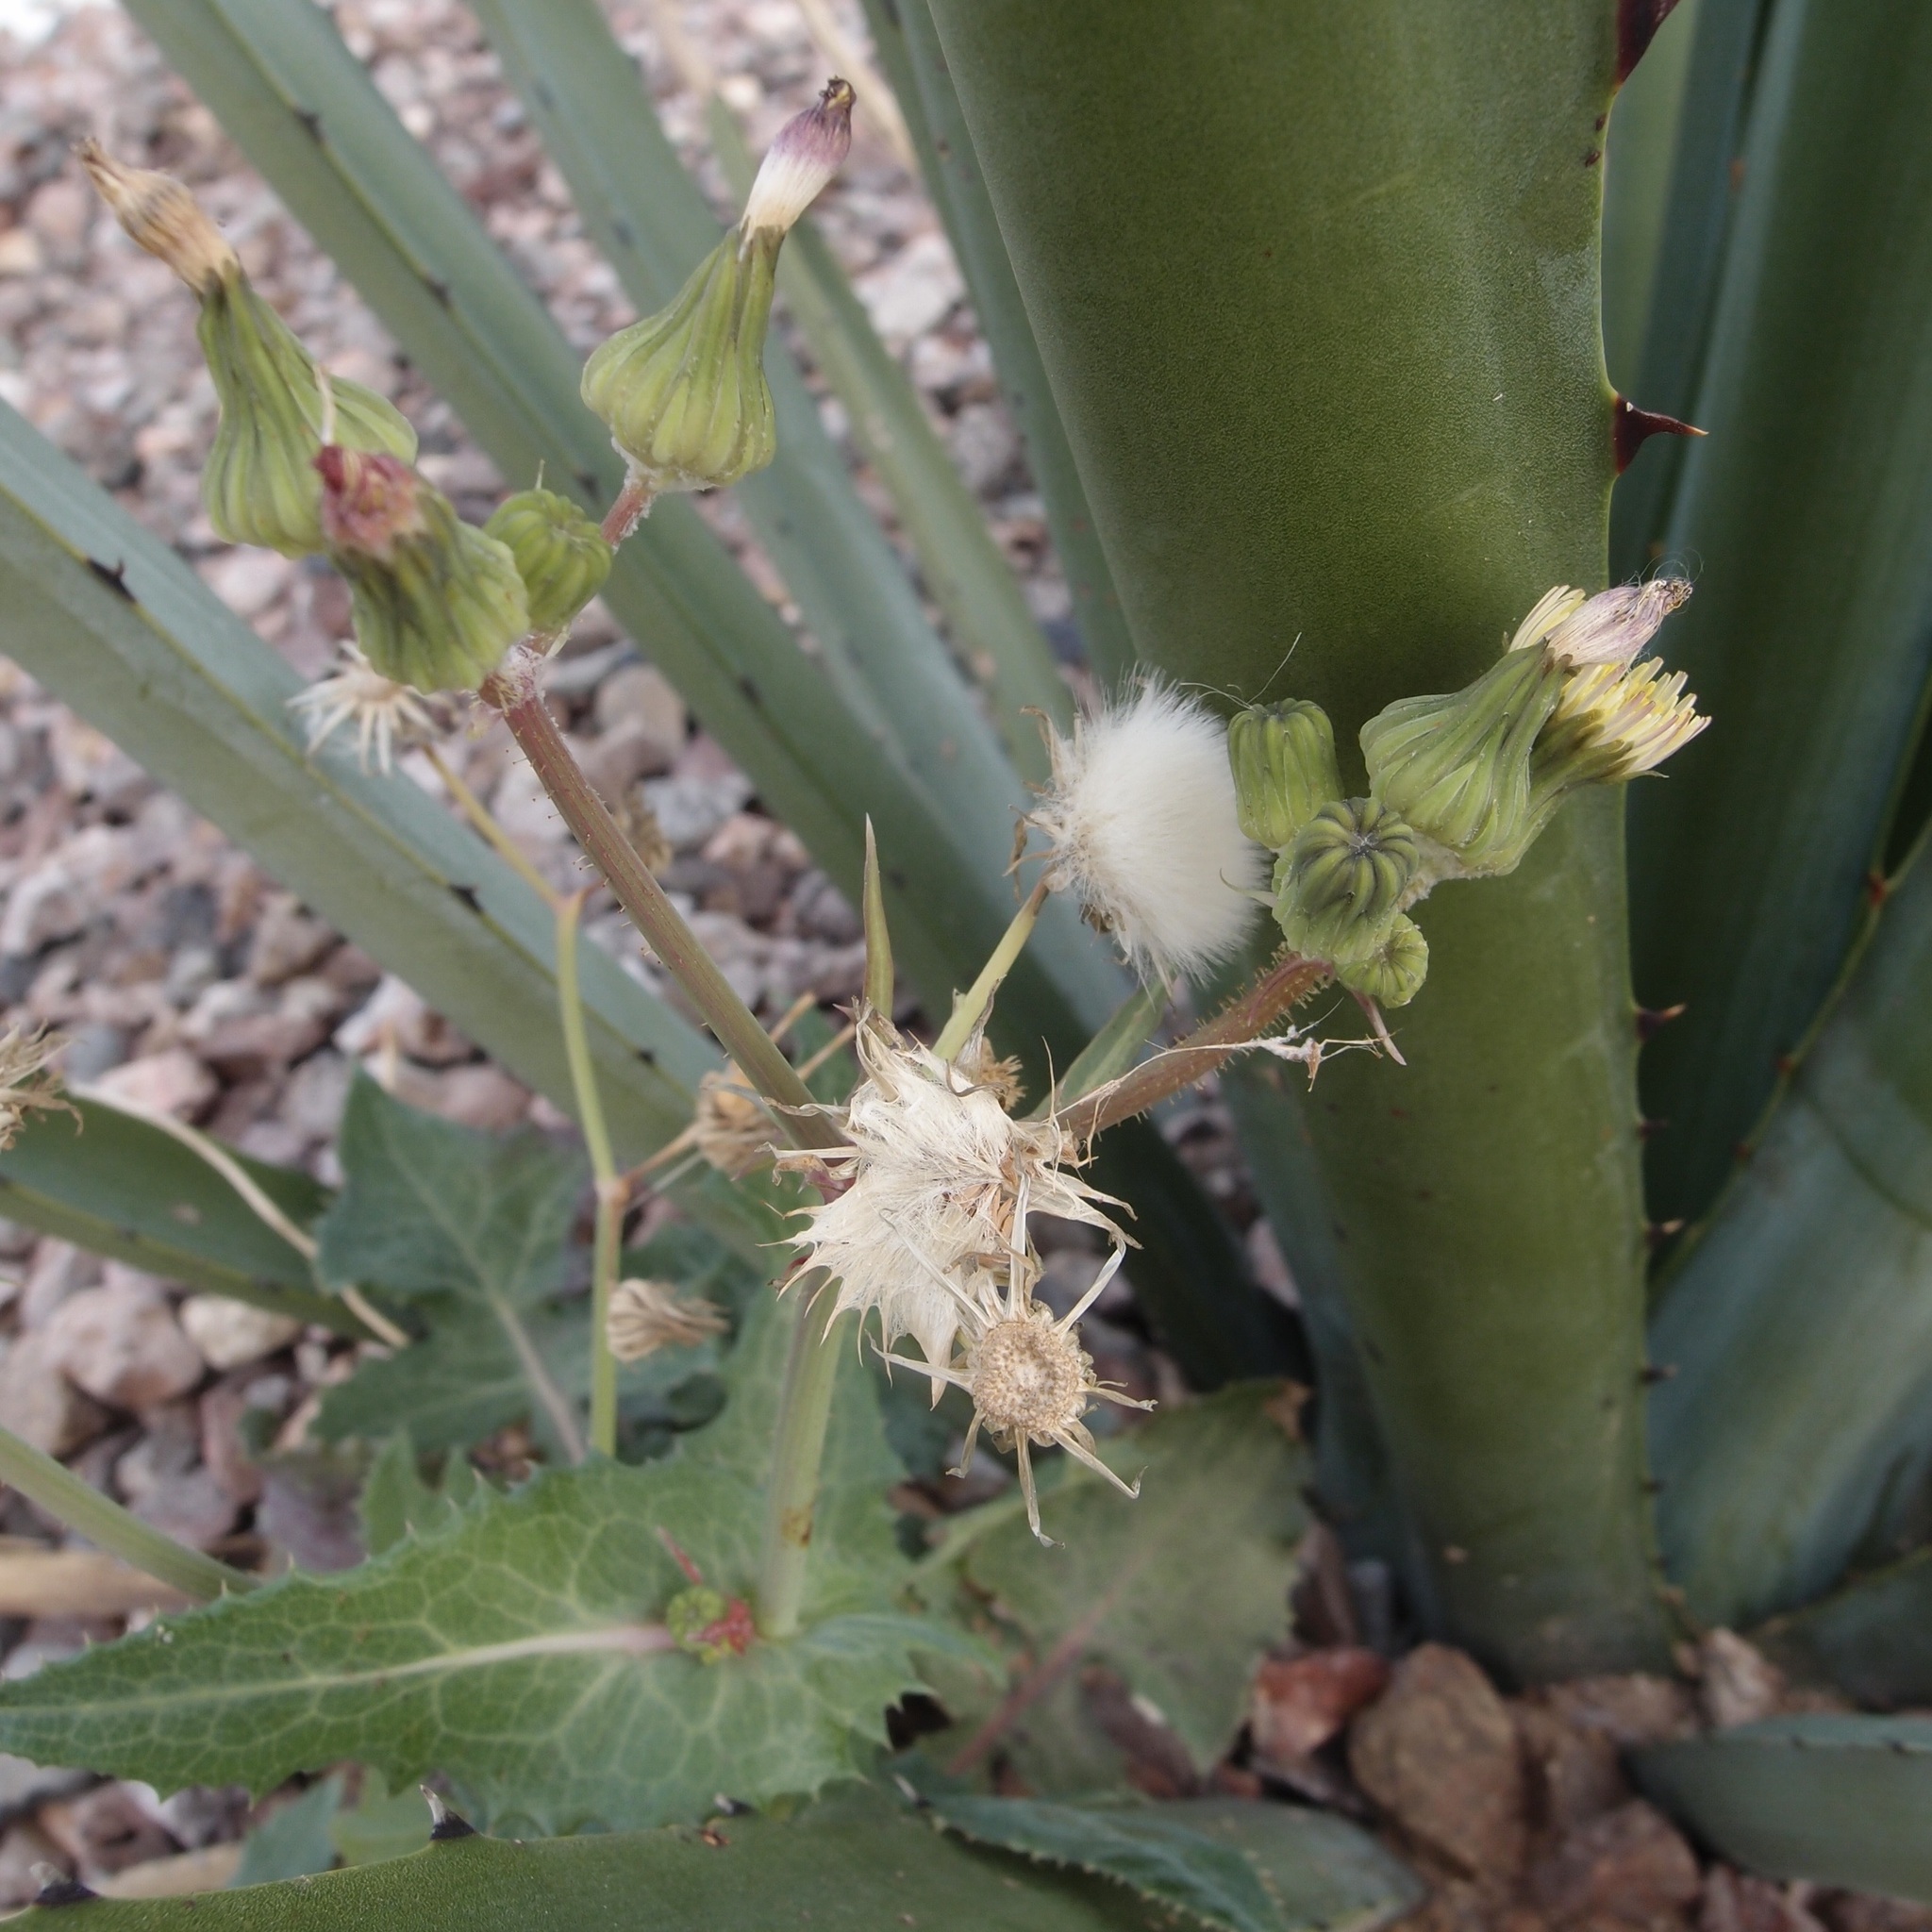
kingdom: Plantae
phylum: Tracheophyta
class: Magnoliopsida
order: Asterales
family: Asteraceae
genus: Sonchus
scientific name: Sonchus oleraceus
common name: Common sowthistle
